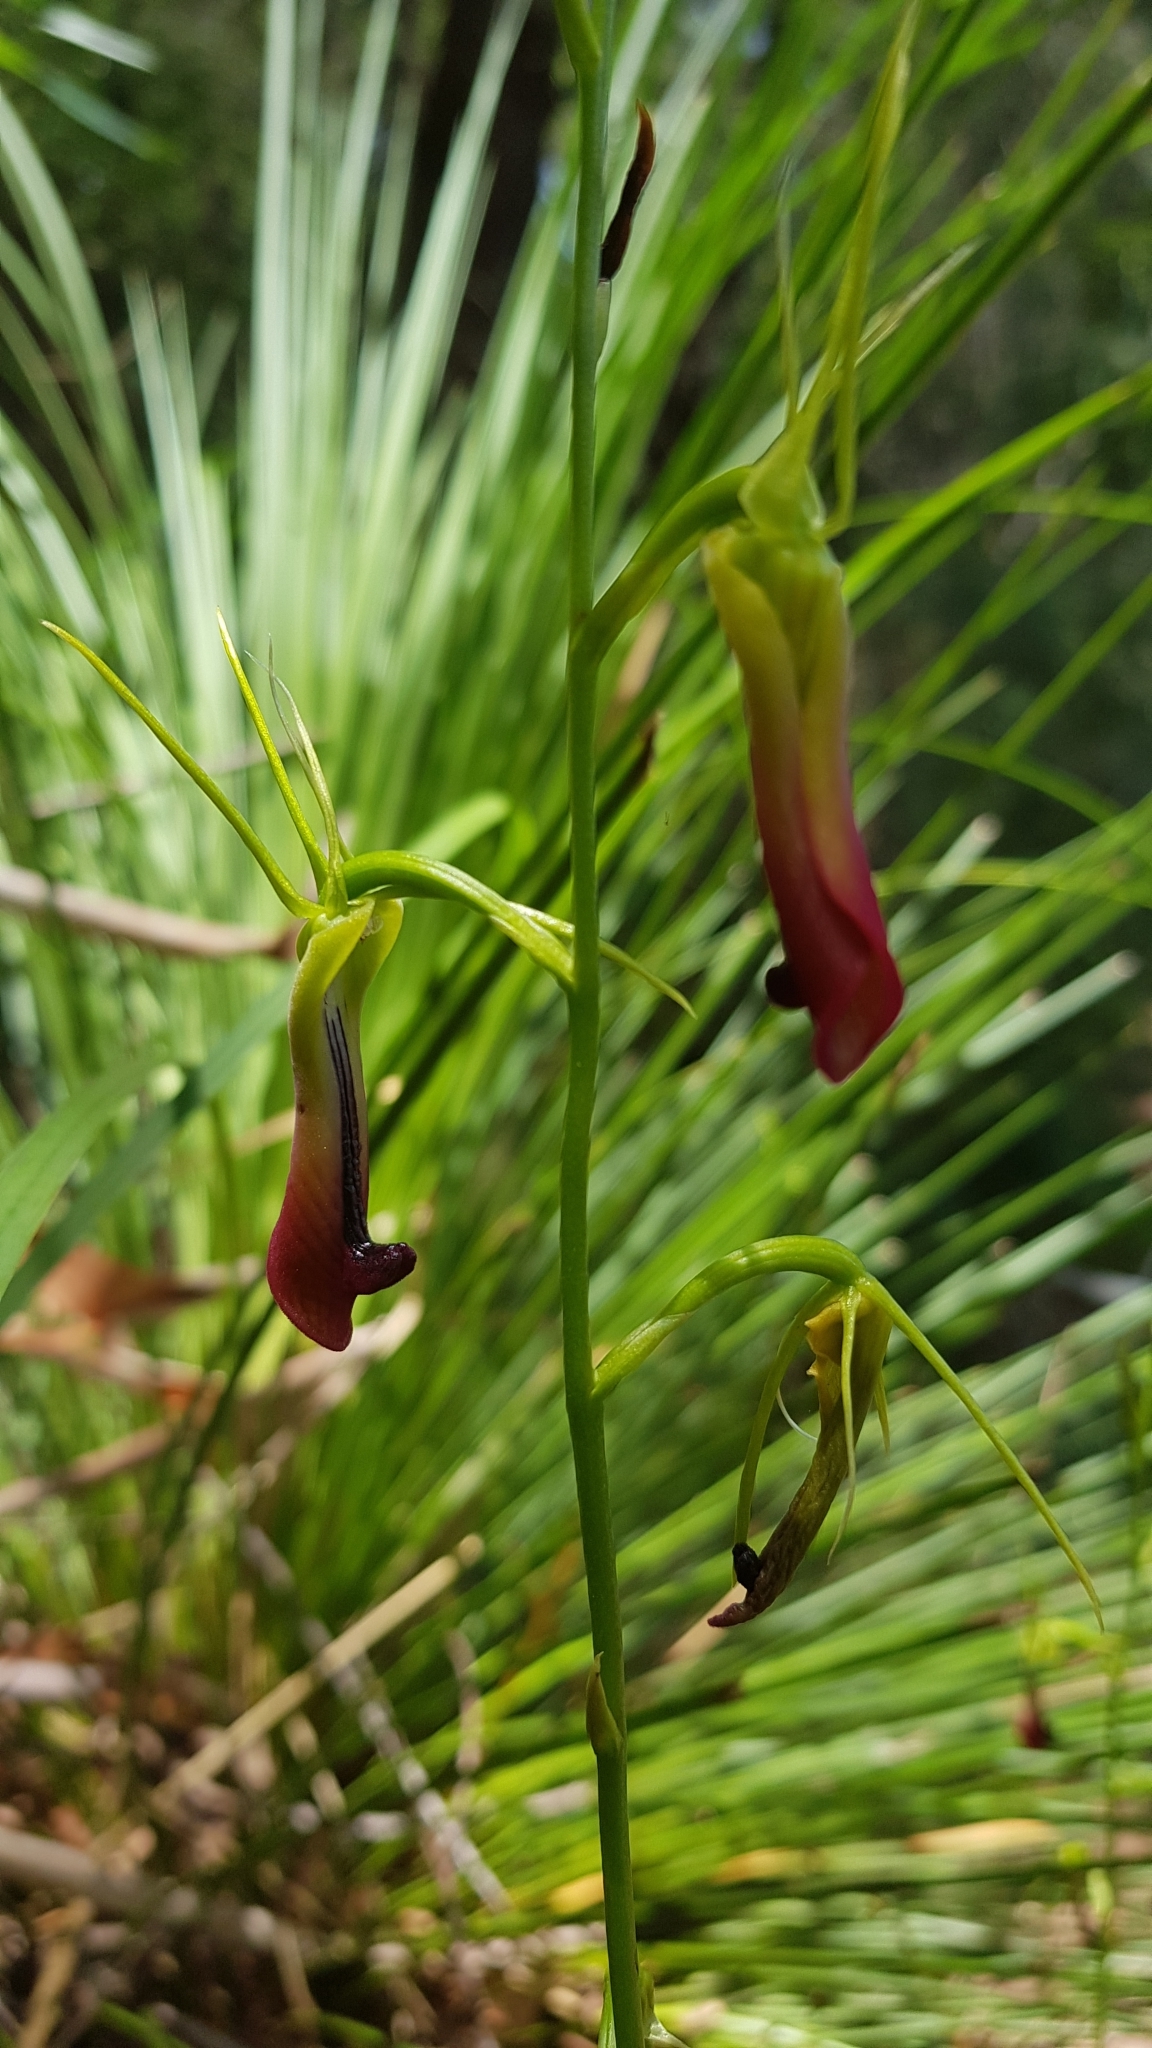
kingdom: Plantae
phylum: Tracheophyta
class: Liliopsida
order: Asparagales
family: Orchidaceae
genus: Cryptostylis
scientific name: Cryptostylis subulata
